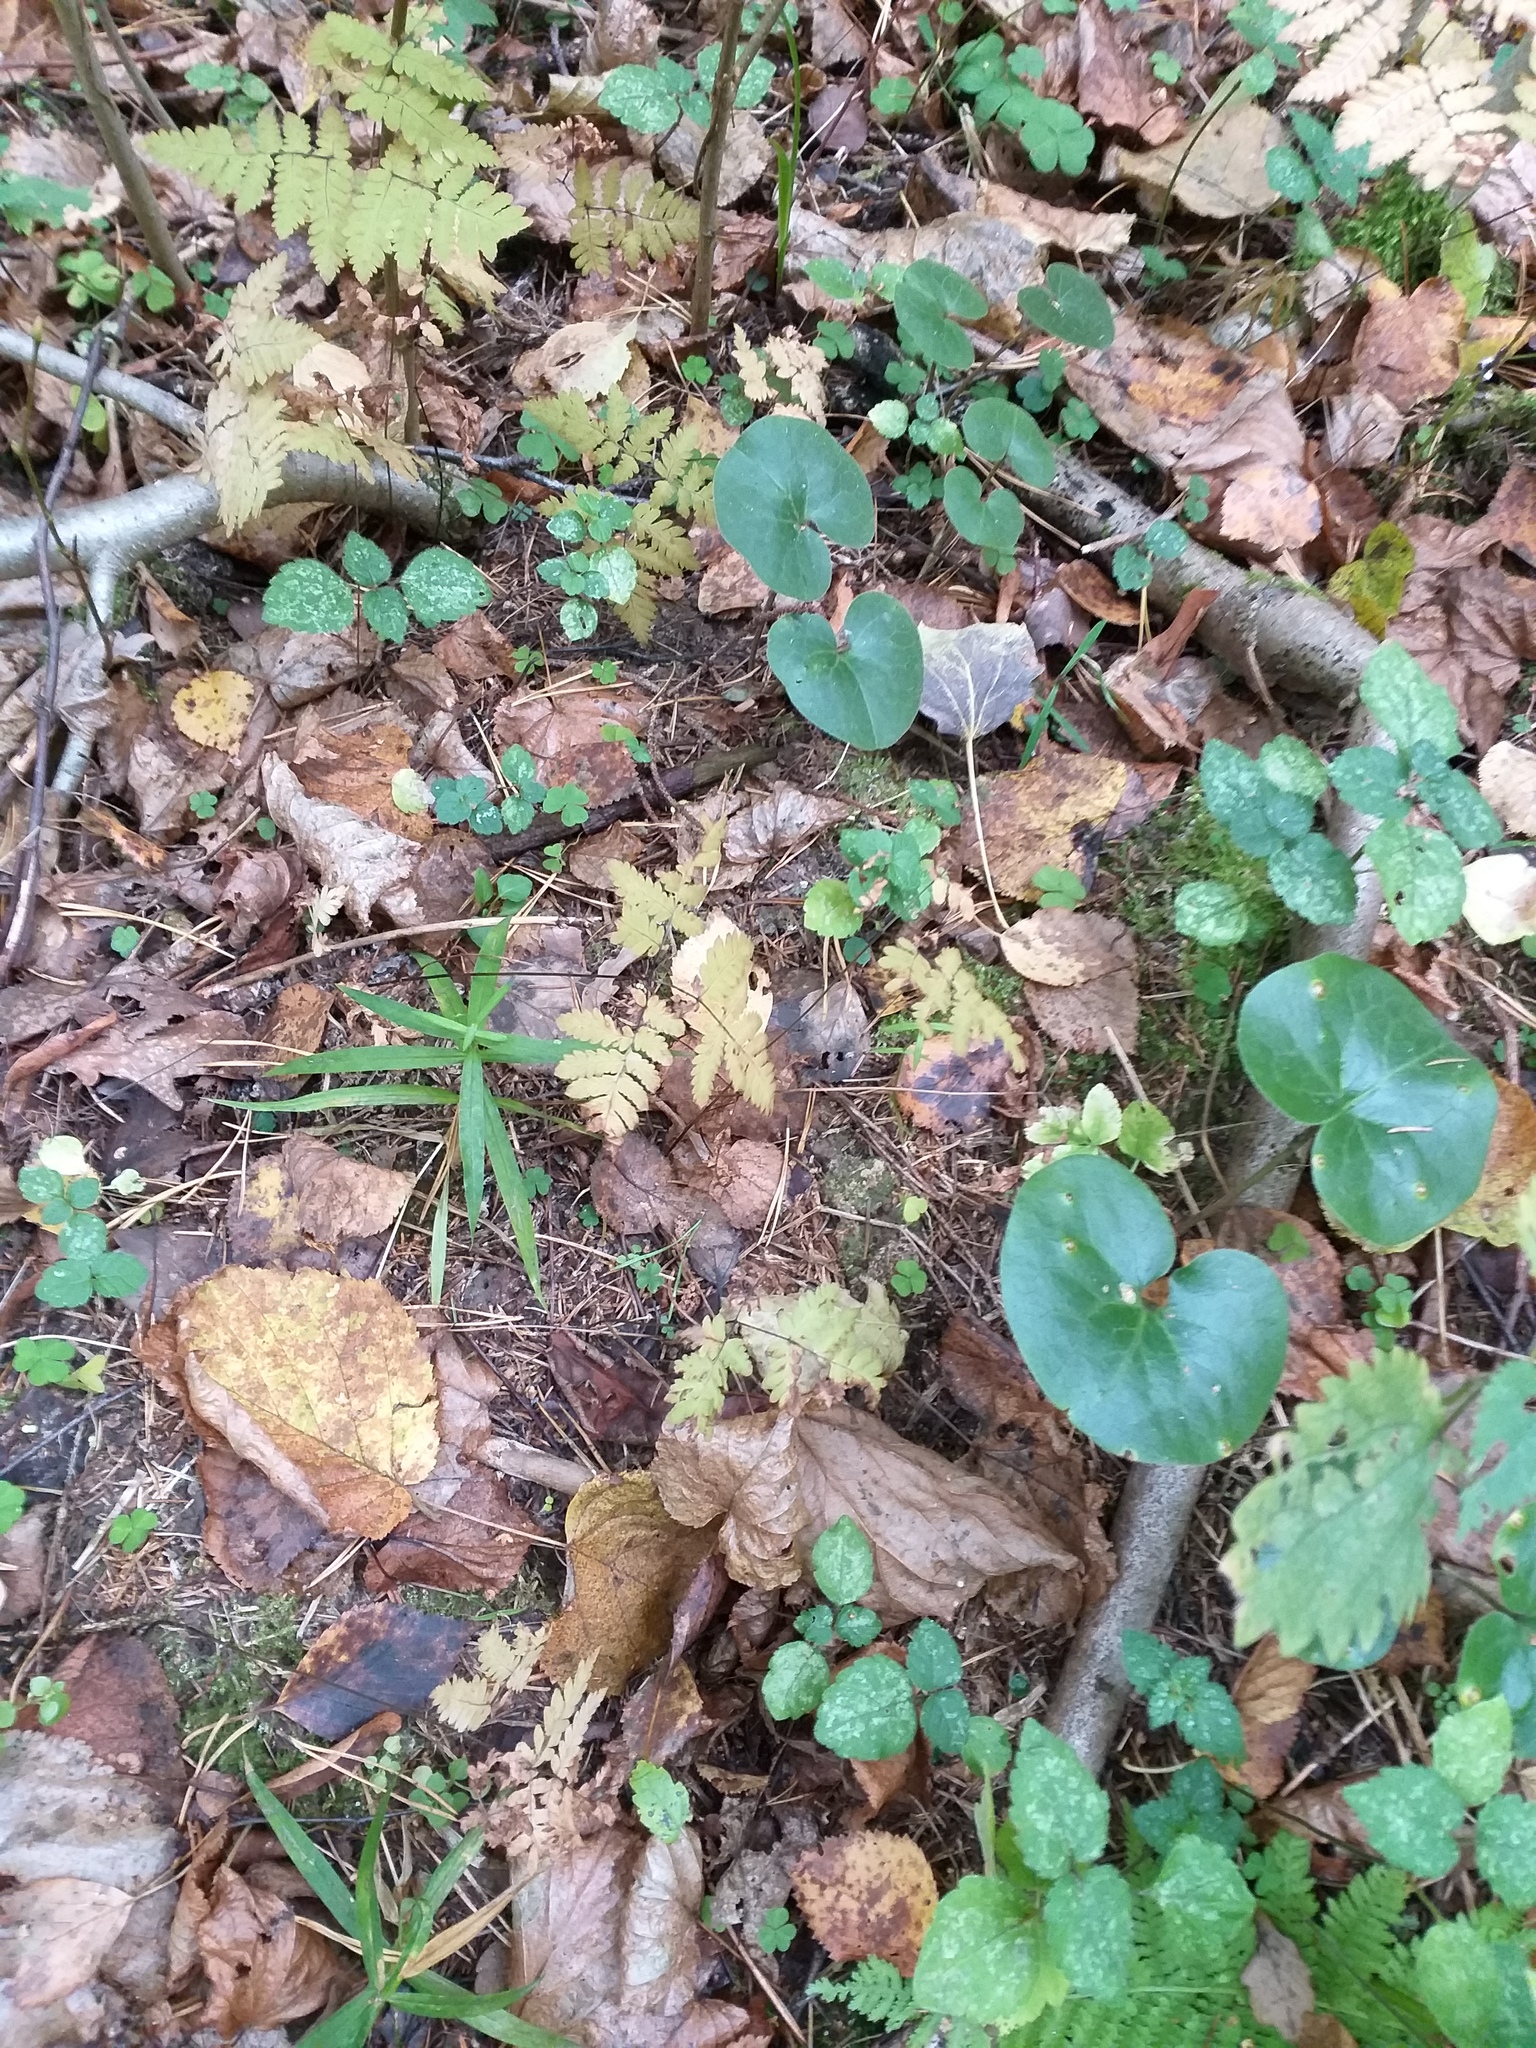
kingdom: Plantae
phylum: Tracheophyta
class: Polypodiopsida
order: Polypodiales
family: Cystopteridaceae
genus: Gymnocarpium
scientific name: Gymnocarpium dryopteris
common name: Oak fern
